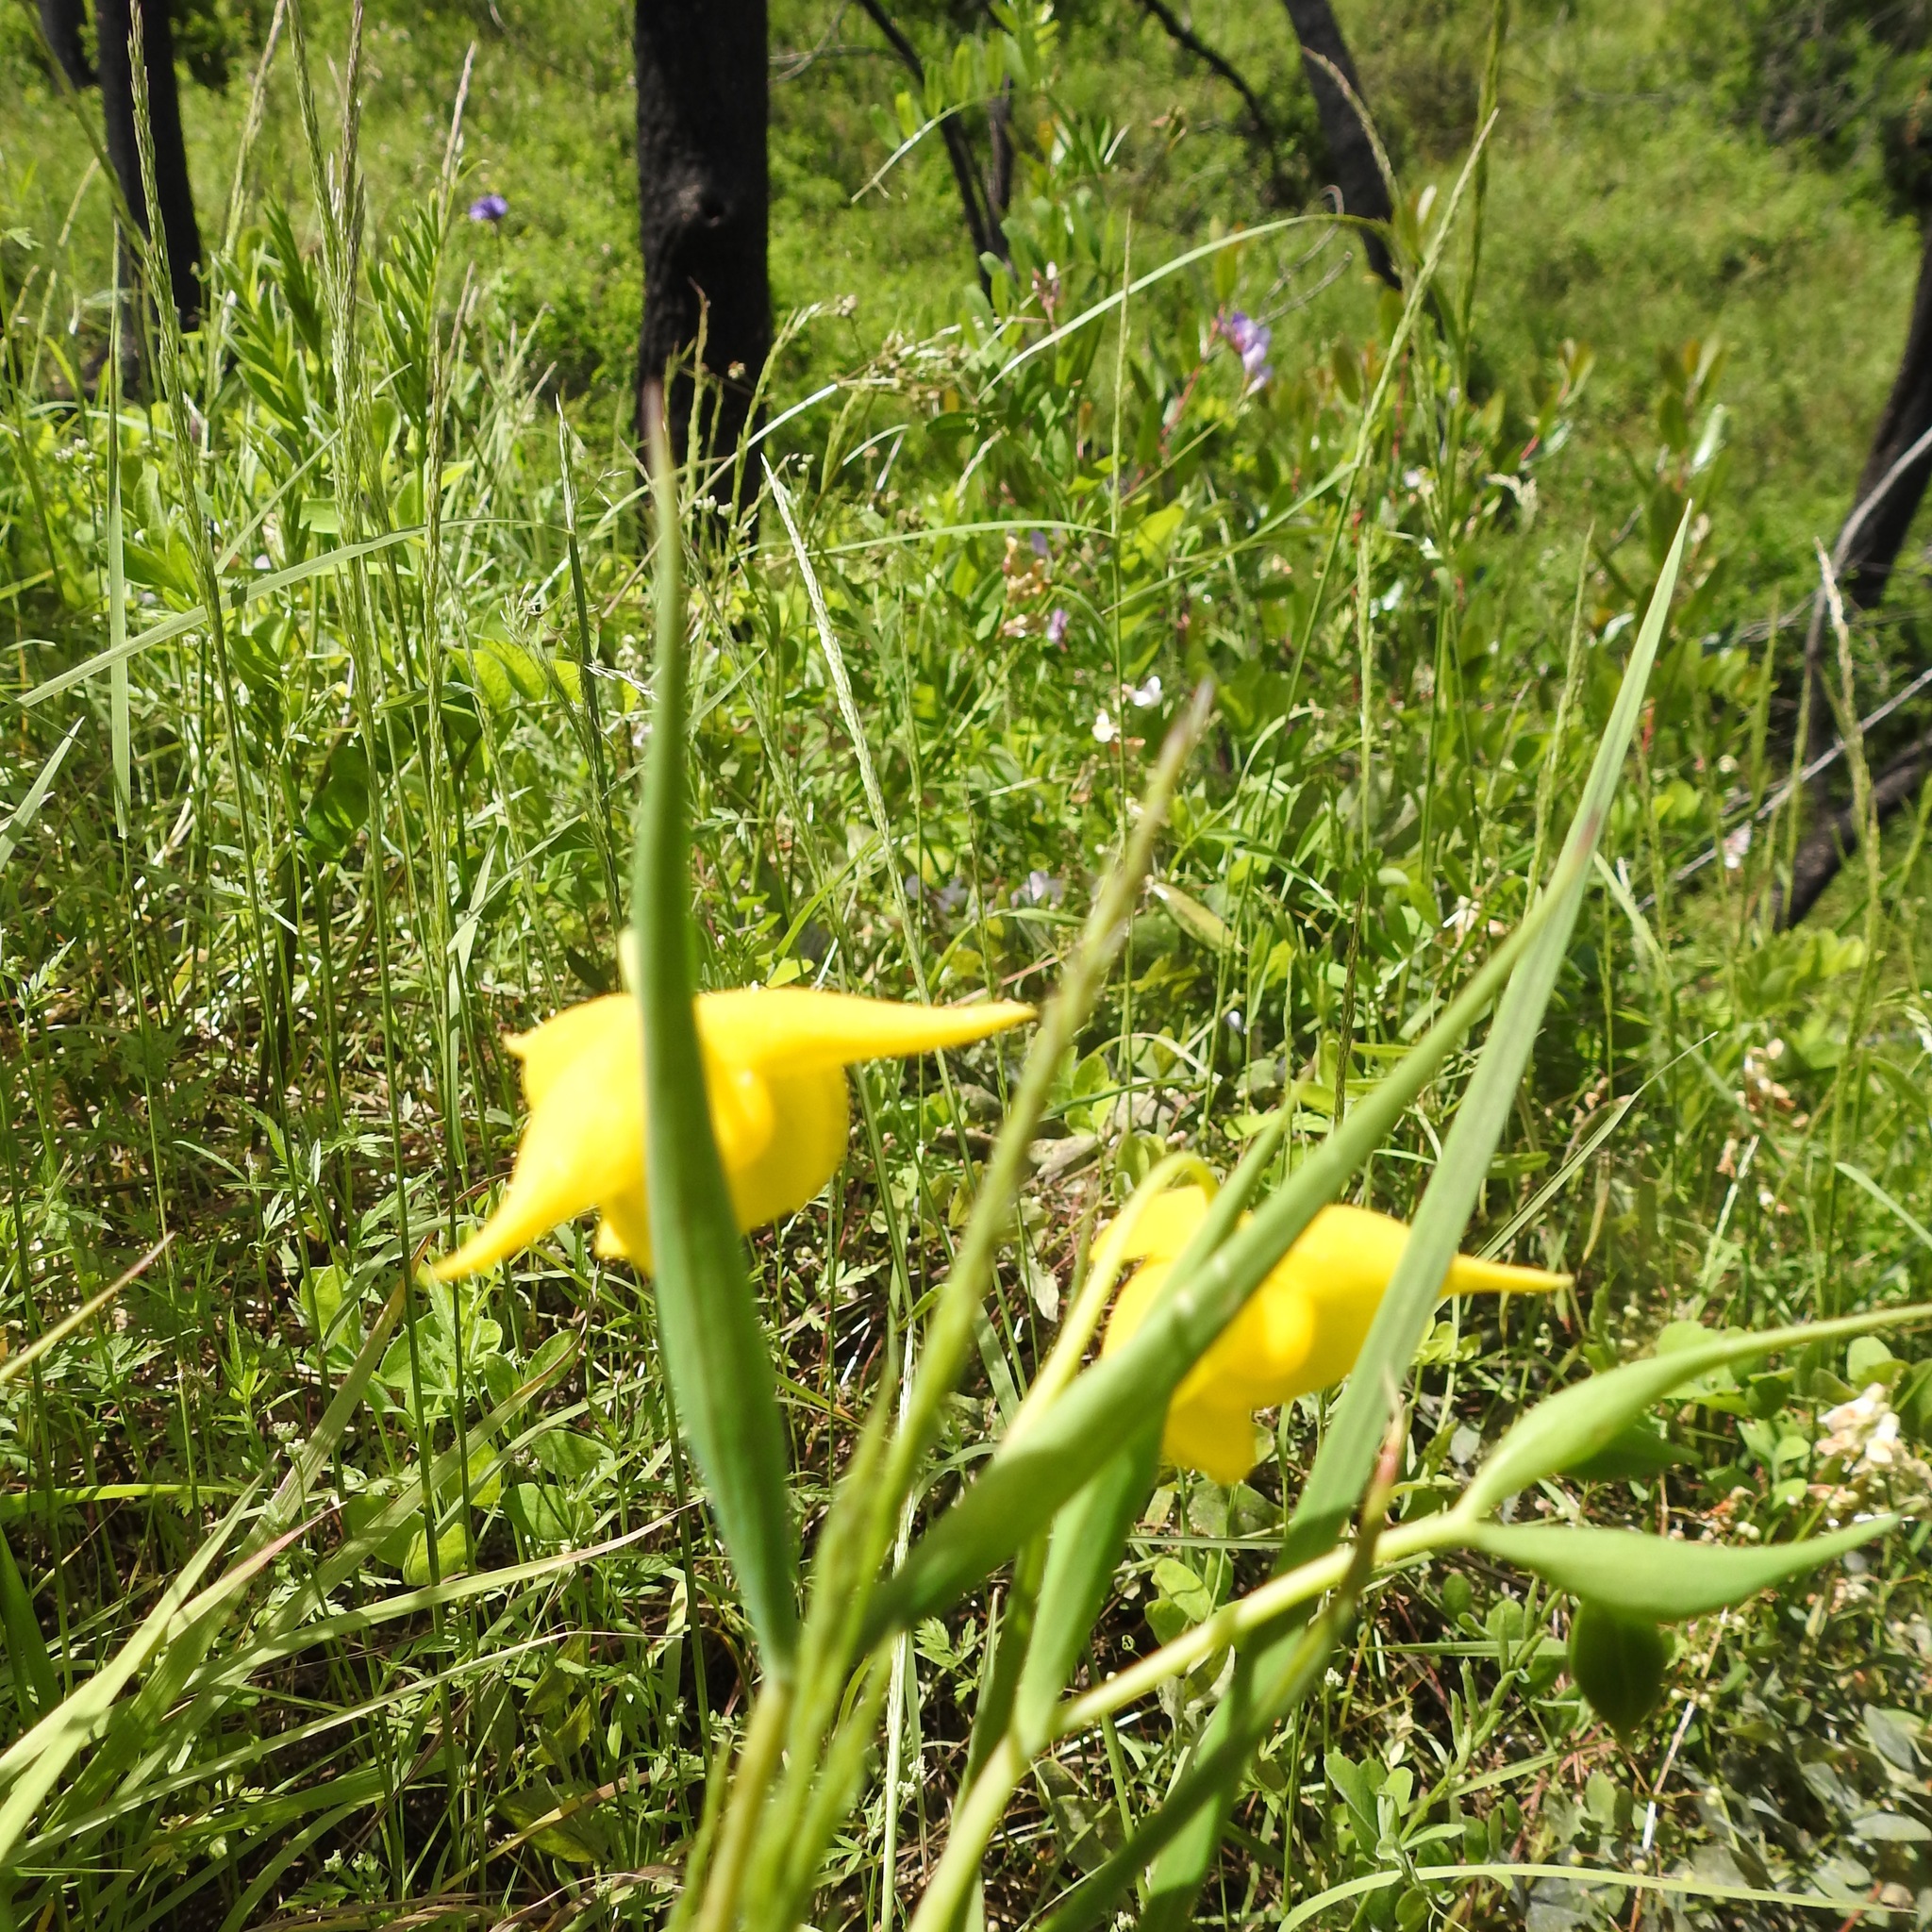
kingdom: Plantae
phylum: Tracheophyta
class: Liliopsida
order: Liliales
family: Liliaceae
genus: Calochortus
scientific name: Calochortus amabilis
